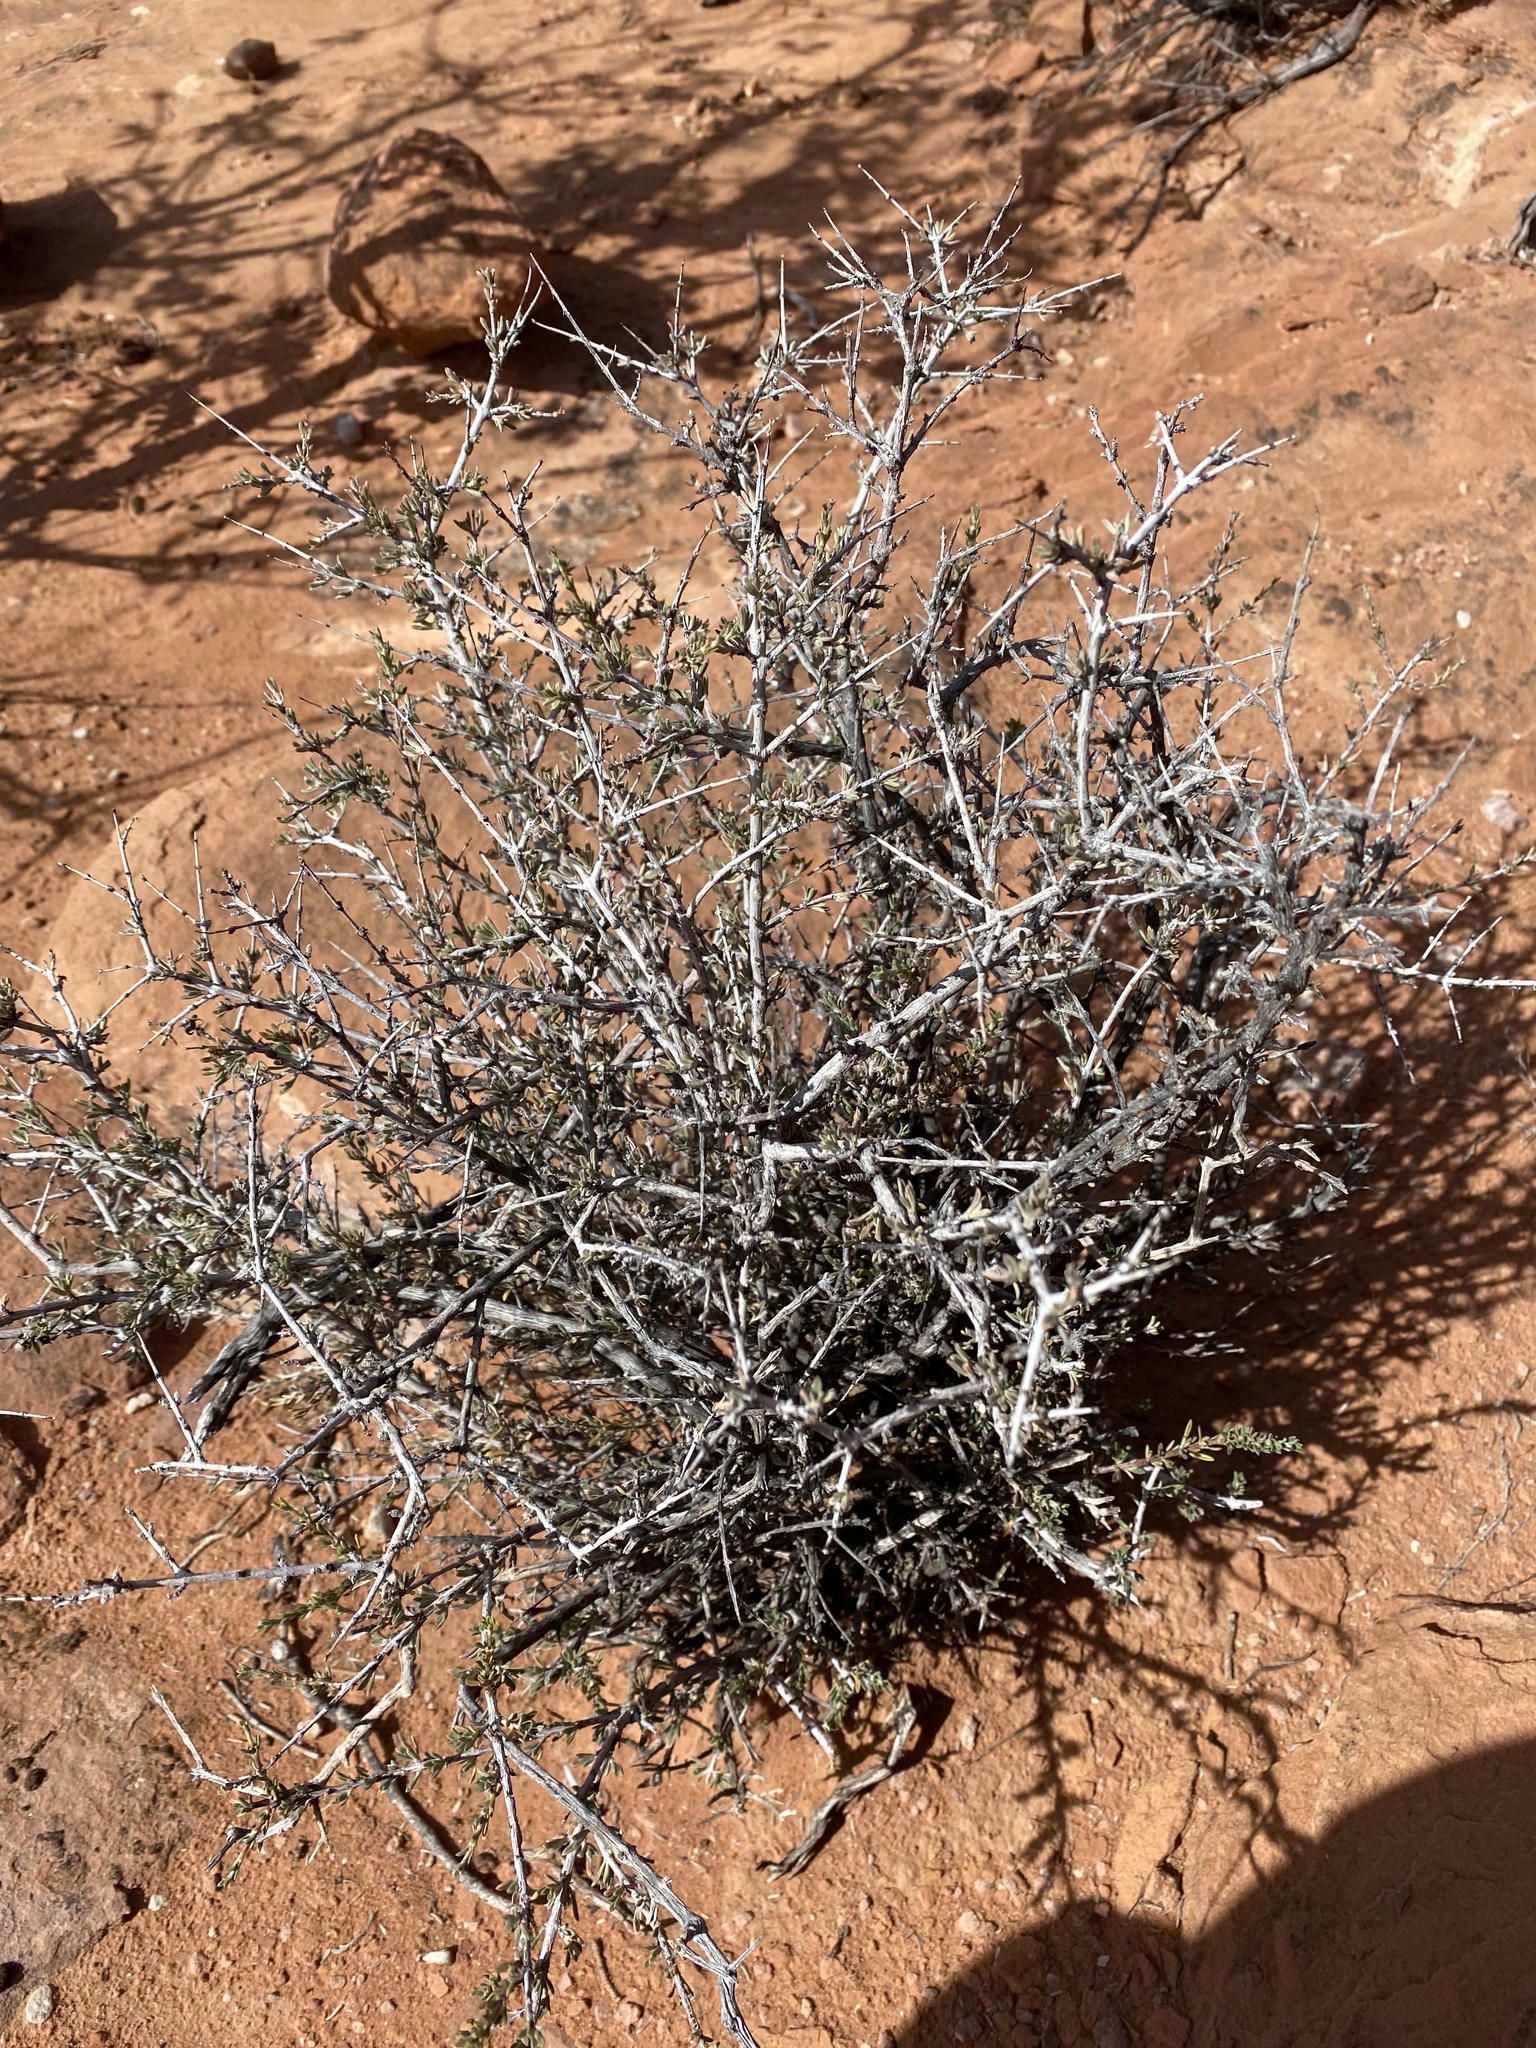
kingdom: Plantae
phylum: Tracheophyta
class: Magnoliopsida
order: Rosales
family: Rosaceae
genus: Coleogyne
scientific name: Coleogyne ramosissima
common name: Blackbrush
